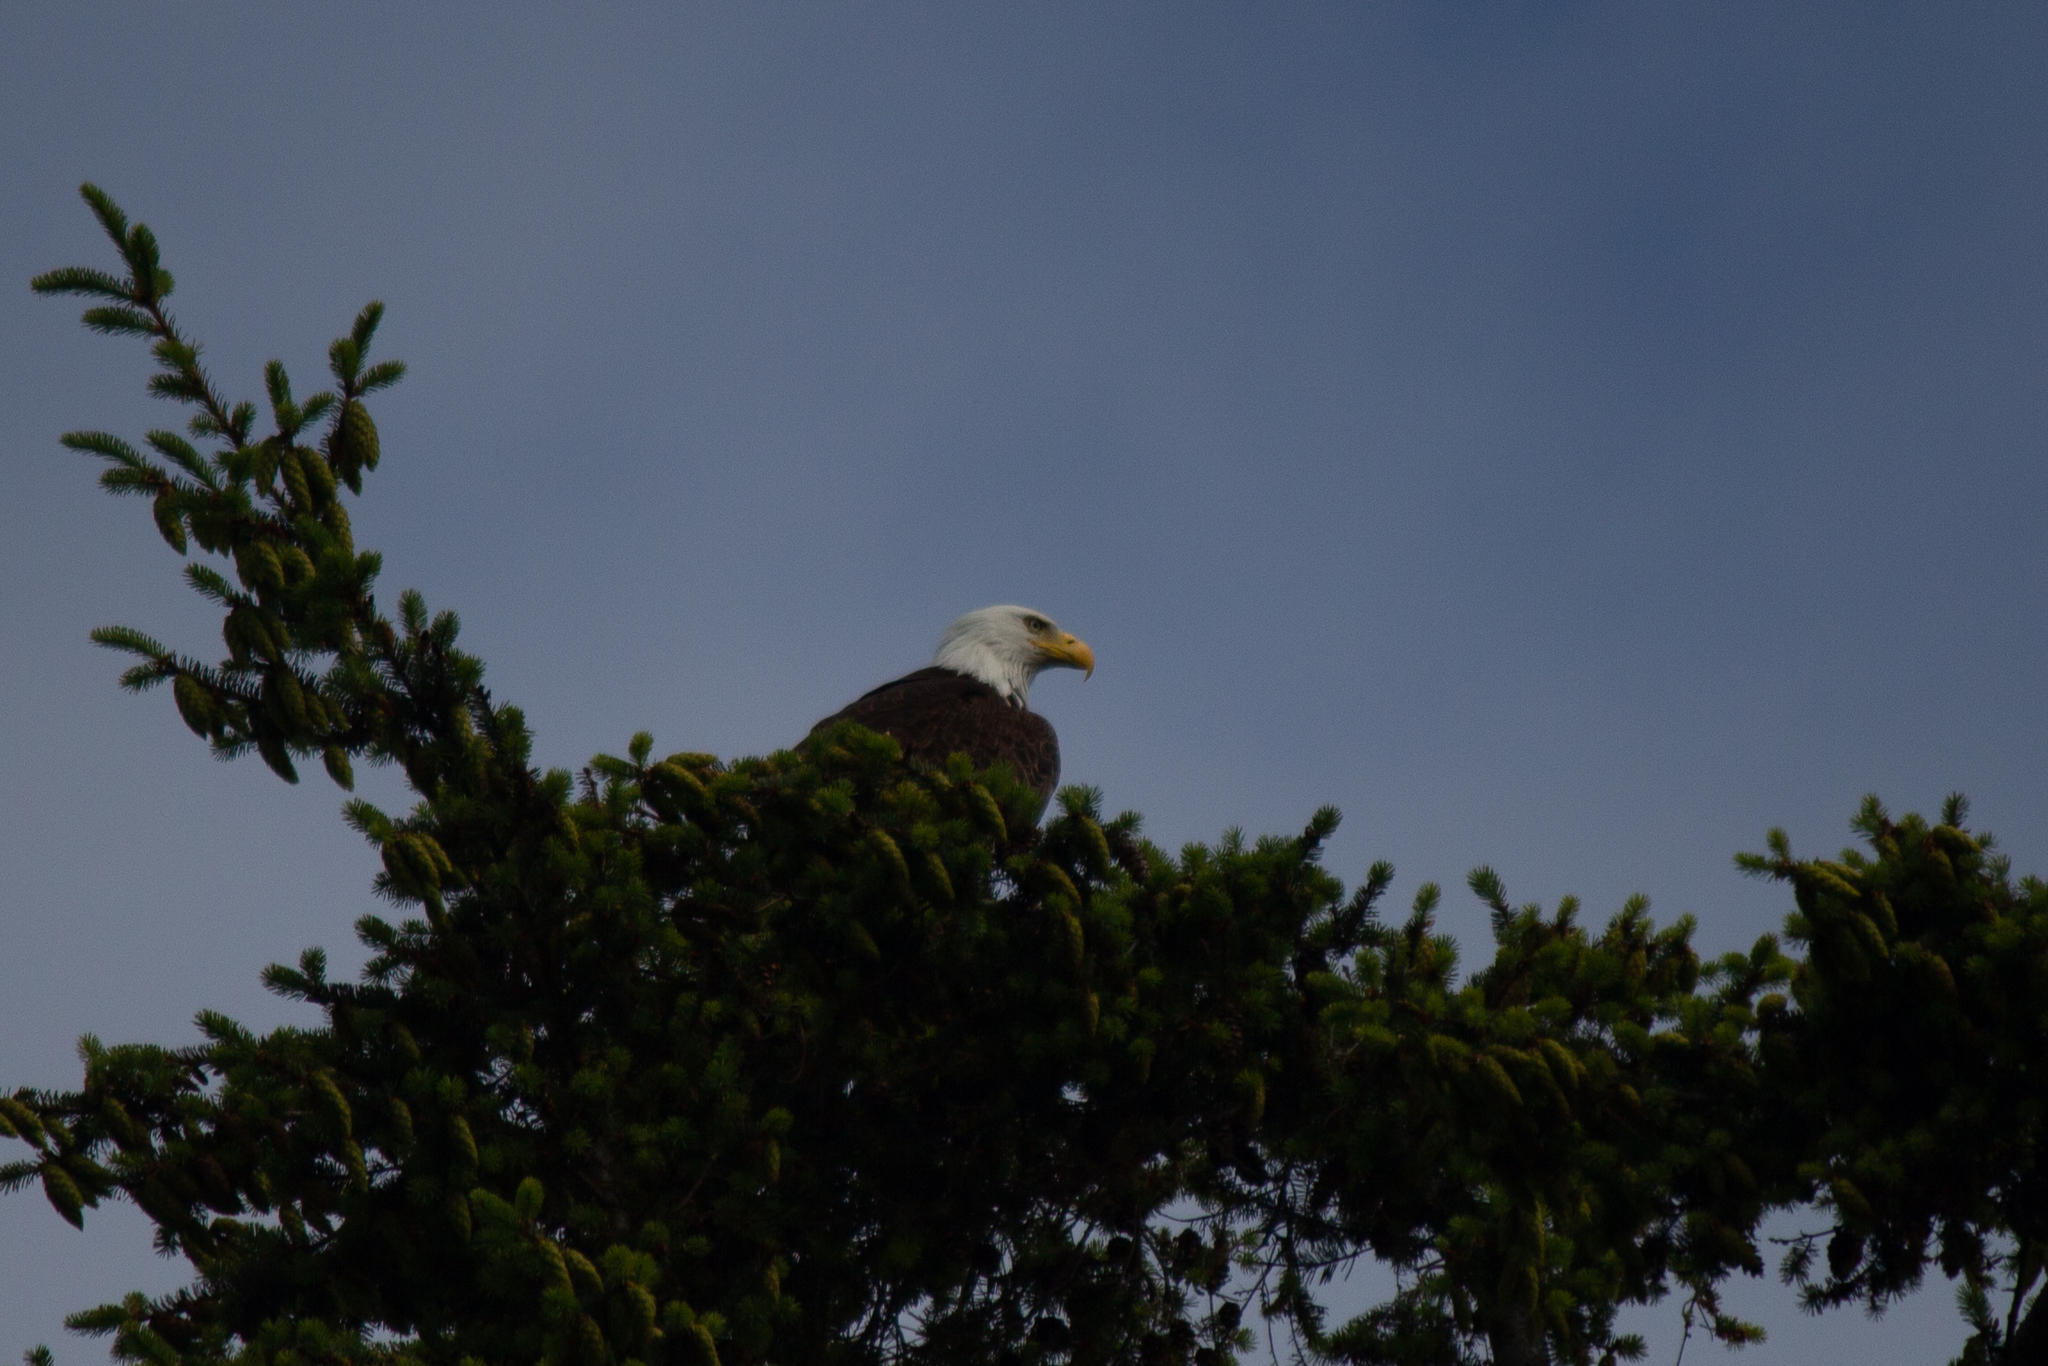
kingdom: Animalia
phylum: Chordata
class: Aves
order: Accipitriformes
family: Accipitridae
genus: Haliaeetus
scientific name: Haliaeetus leucocephalus
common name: Bald eagle
